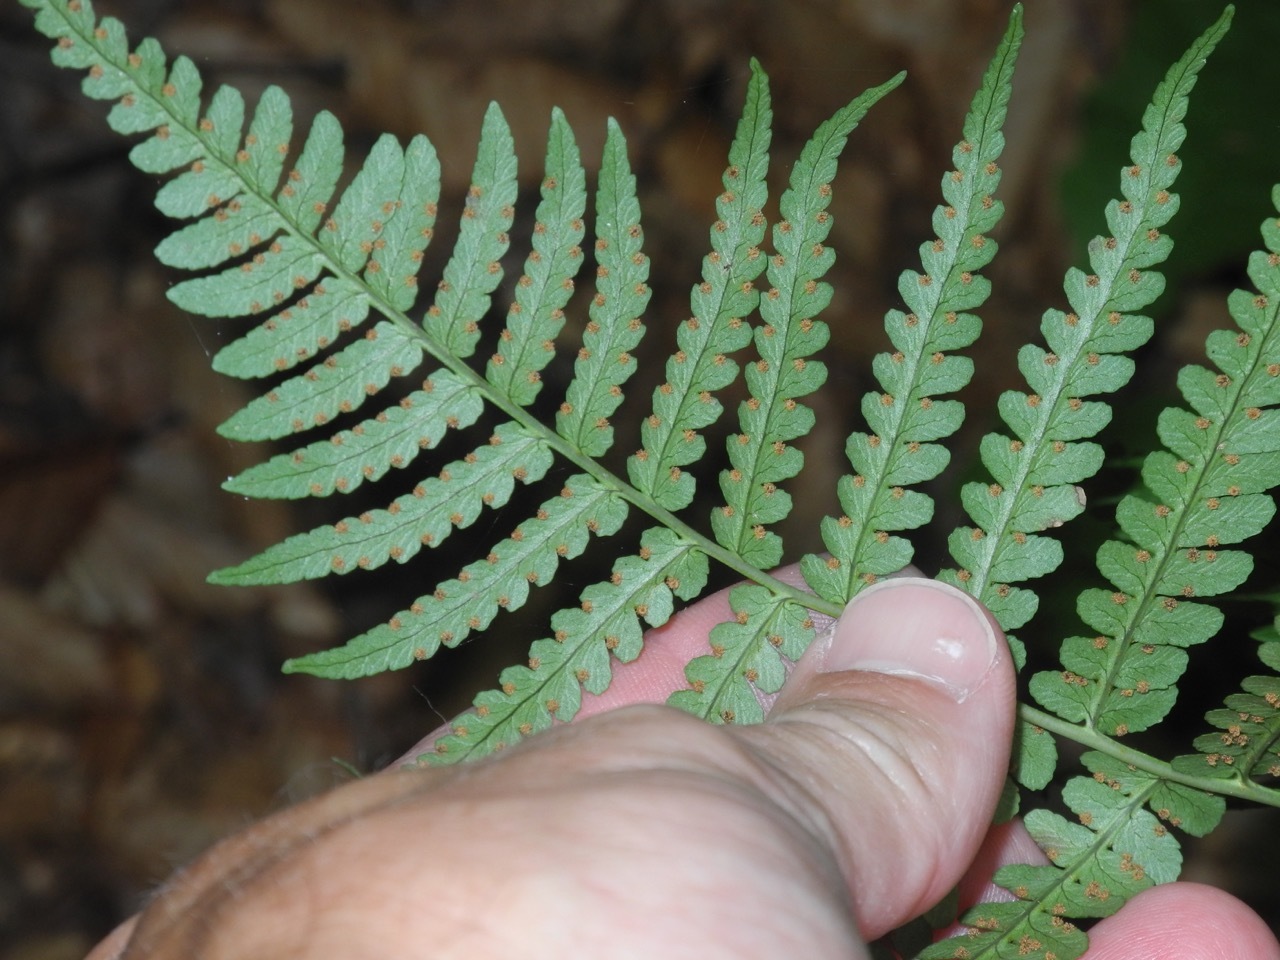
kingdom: Plantae
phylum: Tracheophyta
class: Polypodiopsida
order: Polypodiales
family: Dryopteridaceae
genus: Dryopteris
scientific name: Dryopteris marginalis
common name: Marginal wood fern
